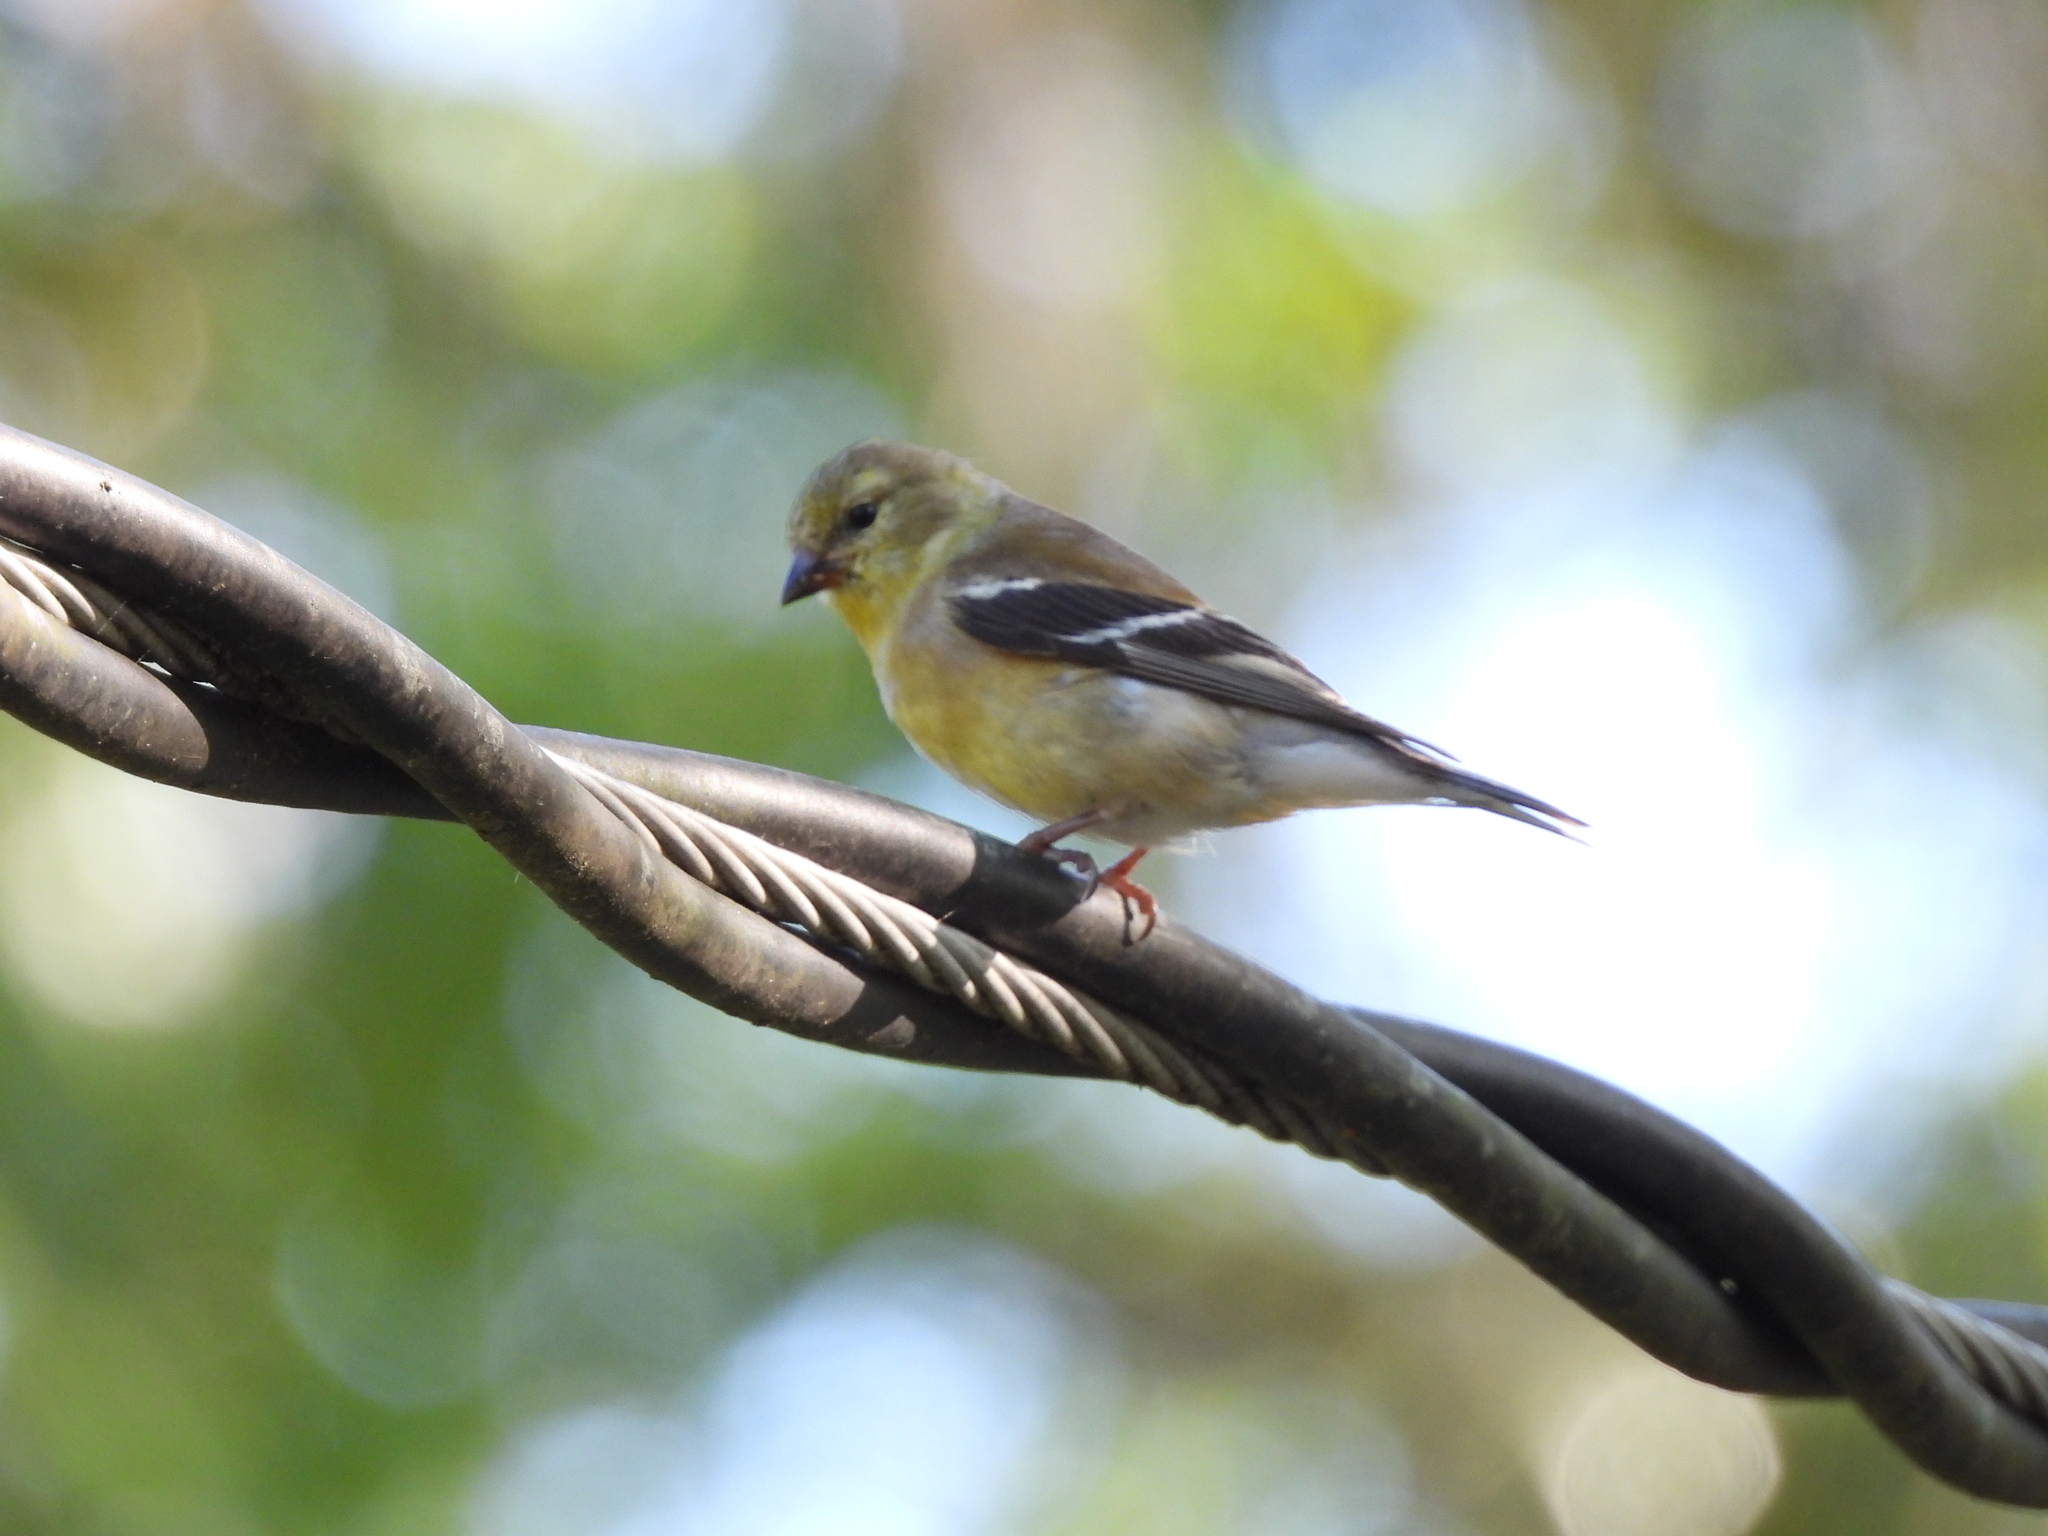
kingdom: Animalia
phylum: Chordata
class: Aves
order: Passeriformes
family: Fringillidae
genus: Spinus
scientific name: Spinus tristis
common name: American goldfinch
